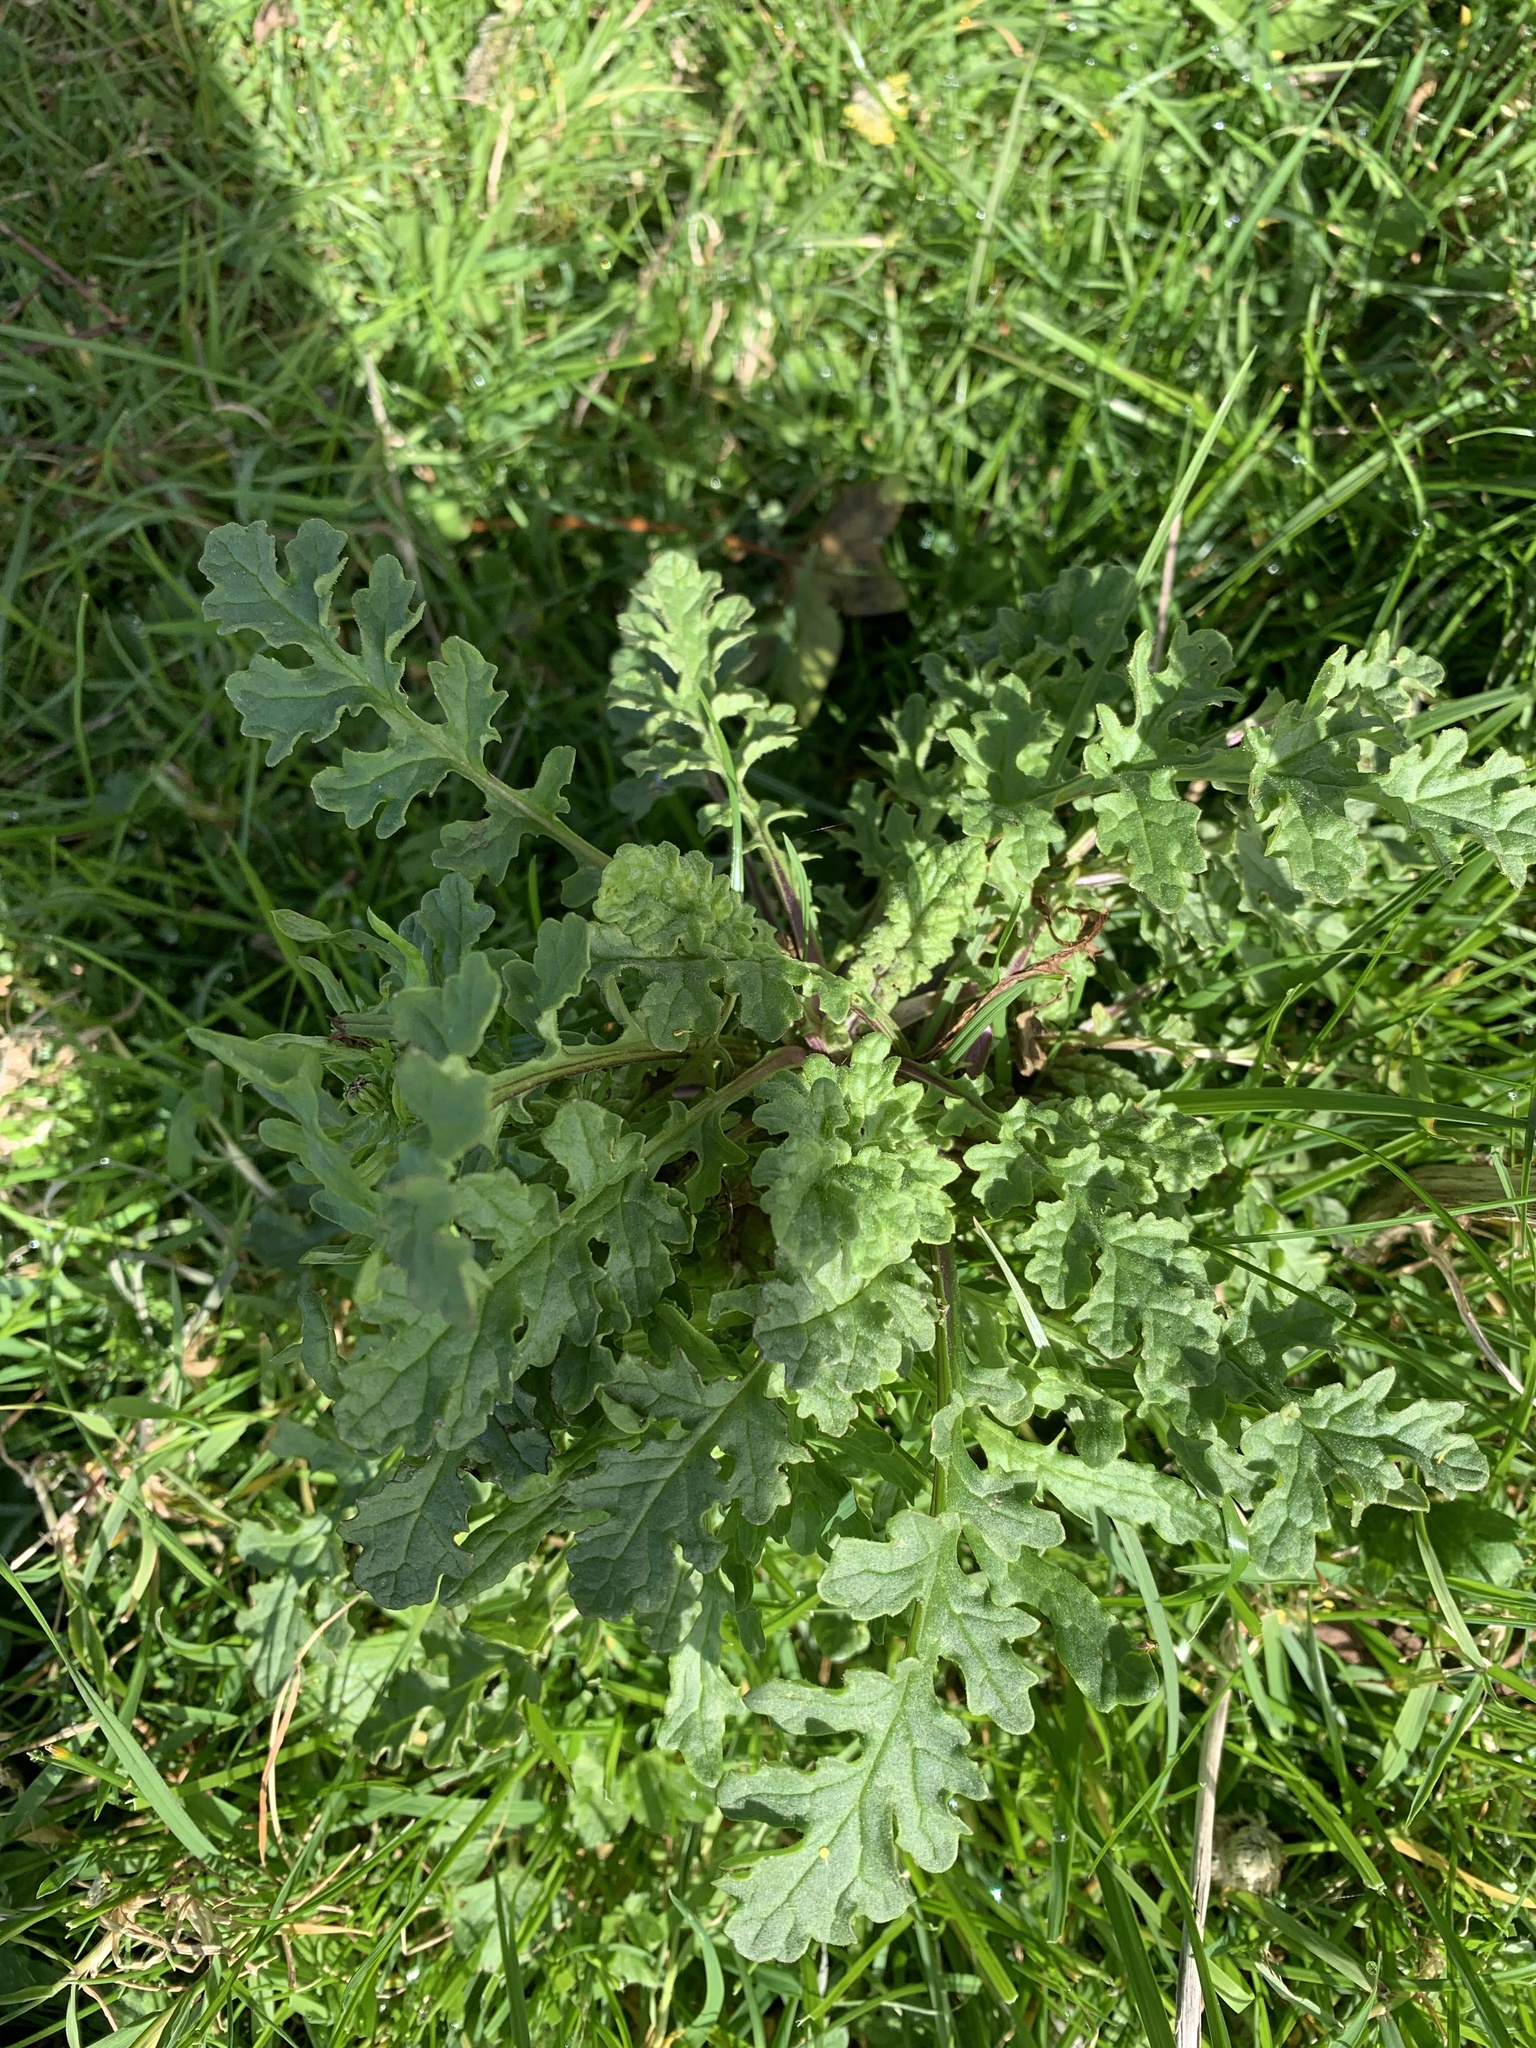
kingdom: Plantae
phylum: Tracheophyta
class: Magnoliopsida
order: Asterales
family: Asteraceae
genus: Jacobaea
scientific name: Jacobaea vulgaris
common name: Stinking willie
